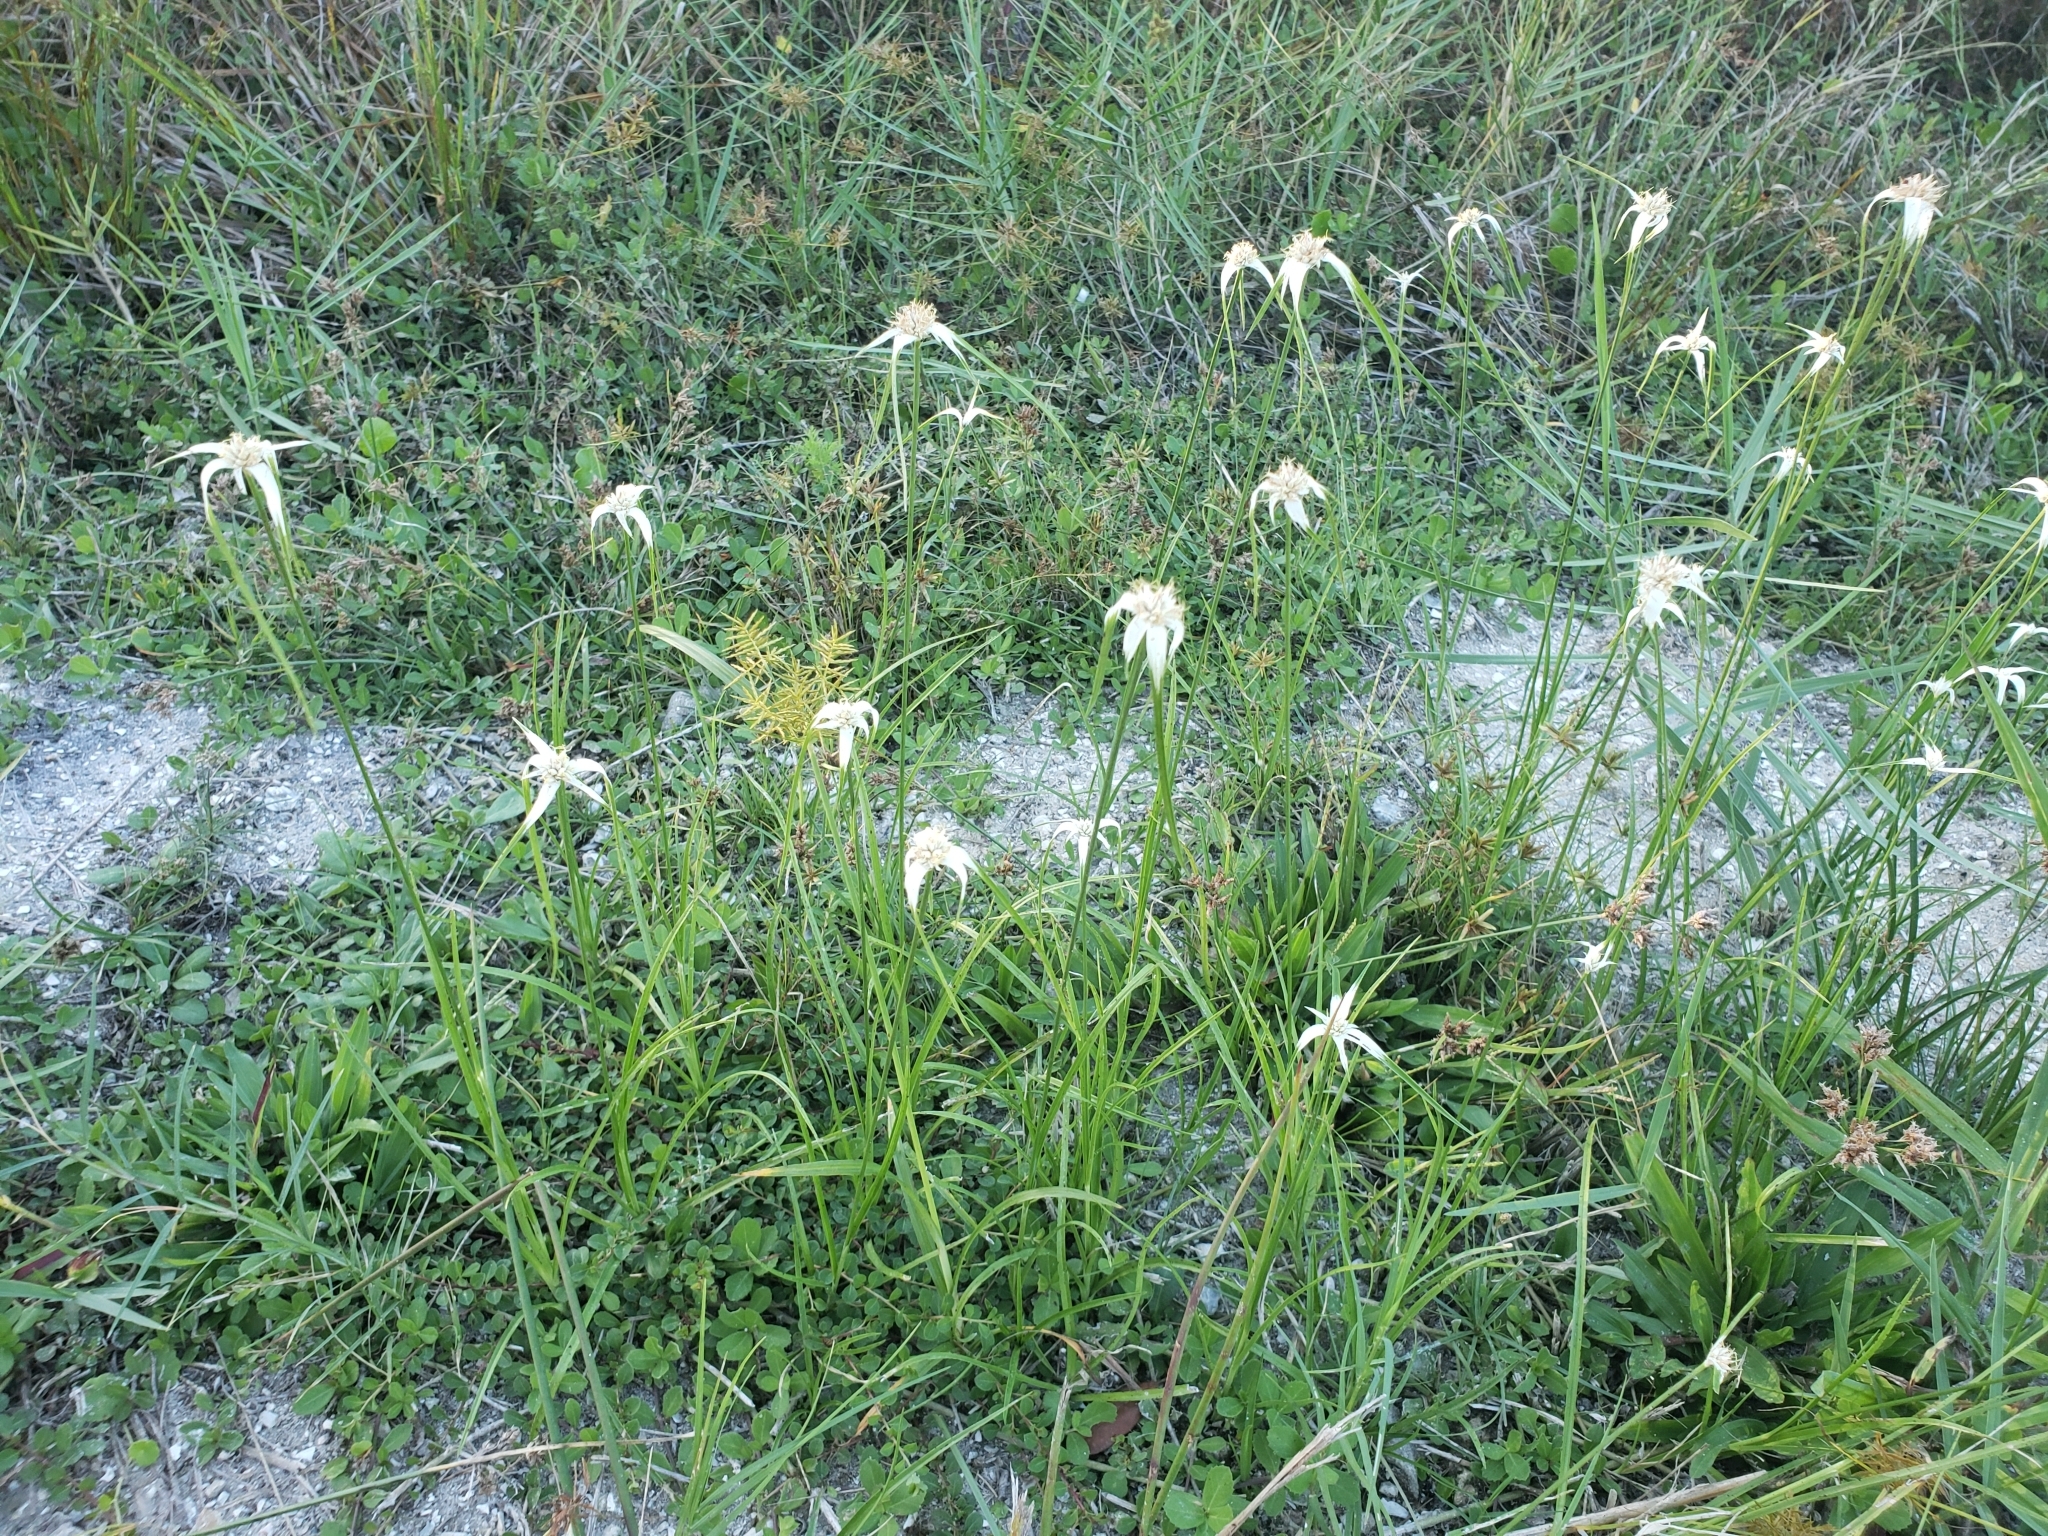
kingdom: Plantae
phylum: Tracheophyta
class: Liliopsida
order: Poales
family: Cyperaceae
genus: Rhynchospora
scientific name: Rhynchospora colorata
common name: Star sedge
